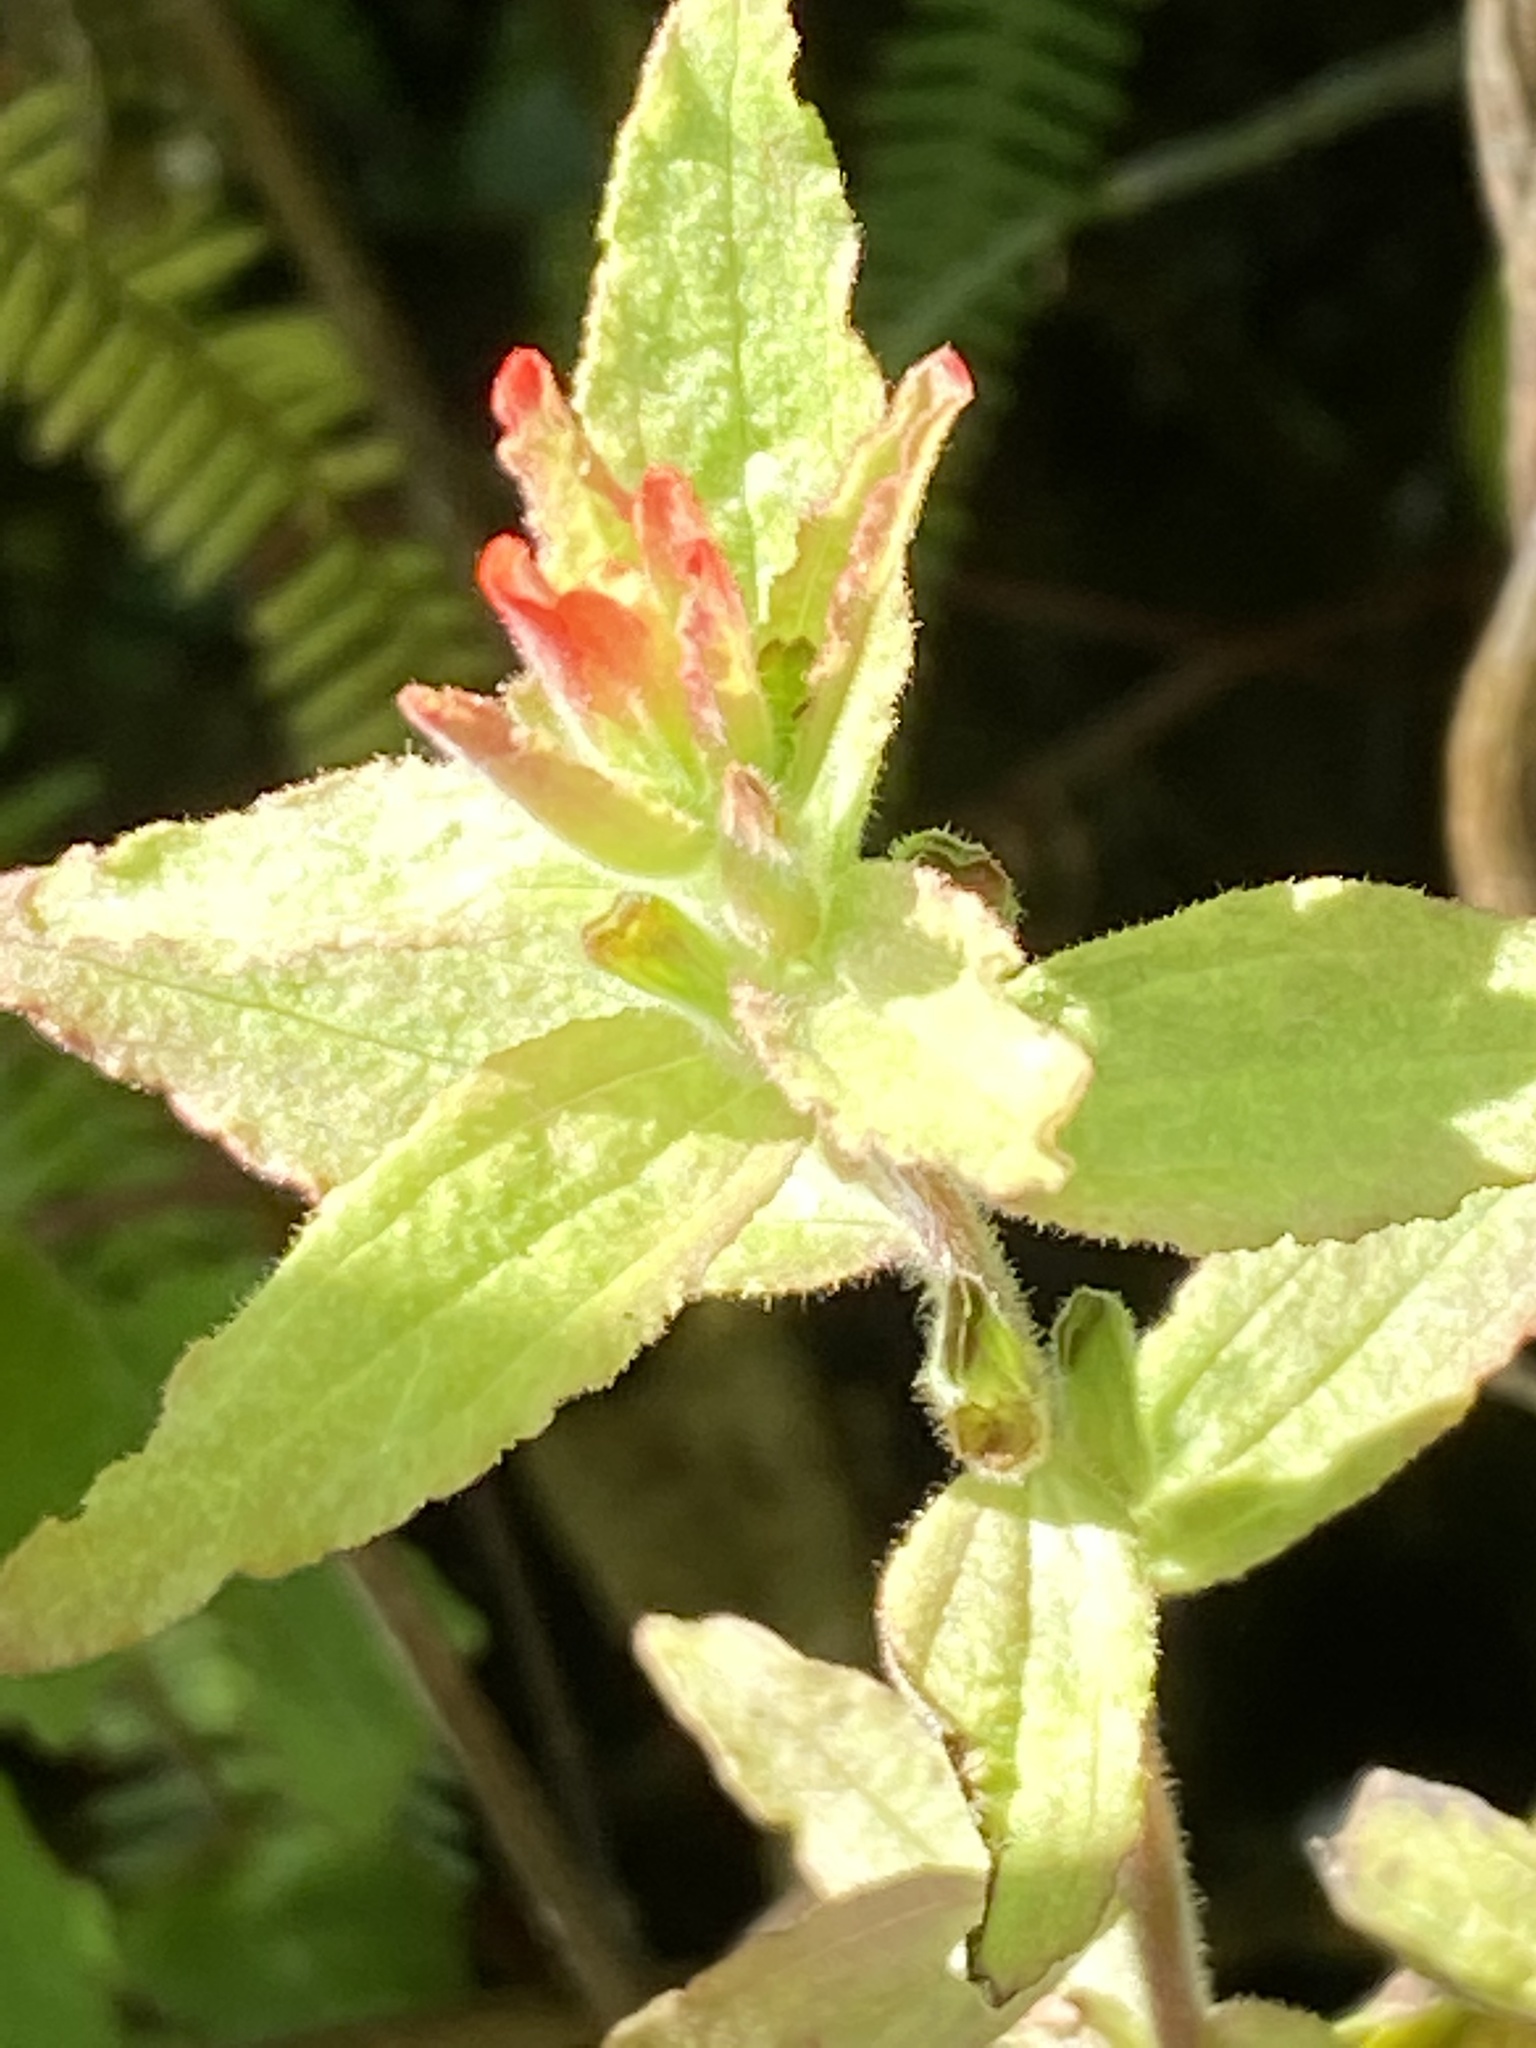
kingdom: Plantae
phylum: Tracheophyta
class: Magnoliopsida
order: Lamiales
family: Orobanchaceae
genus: Castilleja
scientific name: Castilleja arvensis
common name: Indian paintbrush
